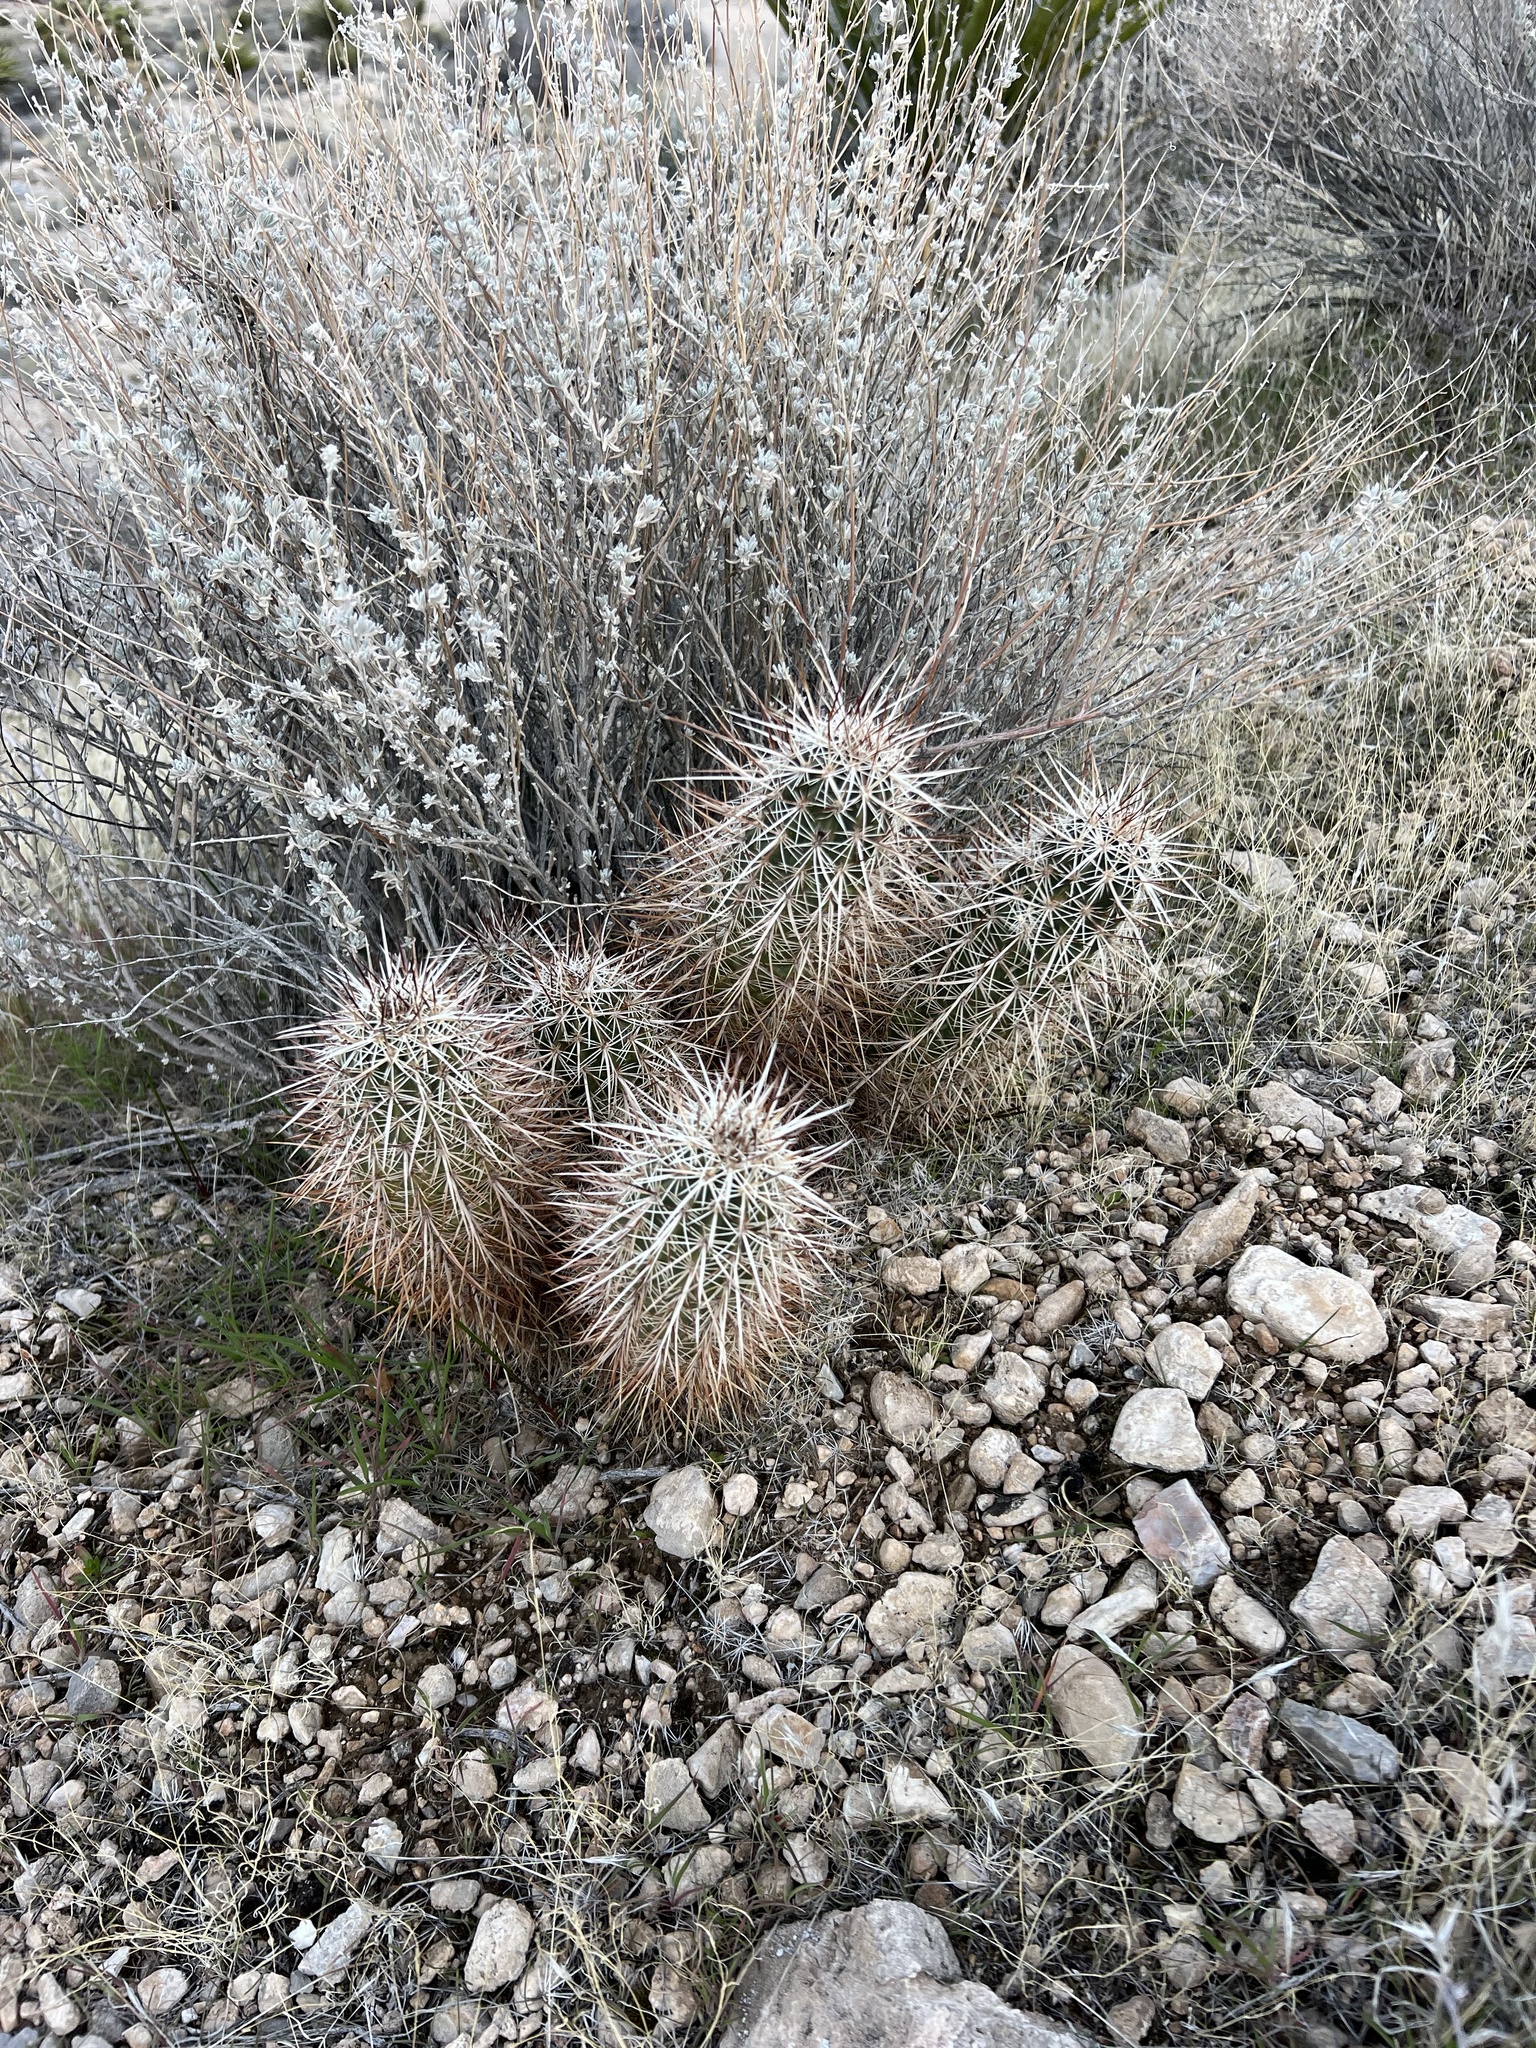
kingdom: Plantae
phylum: Tracheophyta
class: Magnoliopsida
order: Caryophyllales
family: Cactaceae
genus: Echinocereus
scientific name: Echinocereus engelmannii
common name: Engelmann's hedgehog cactus
